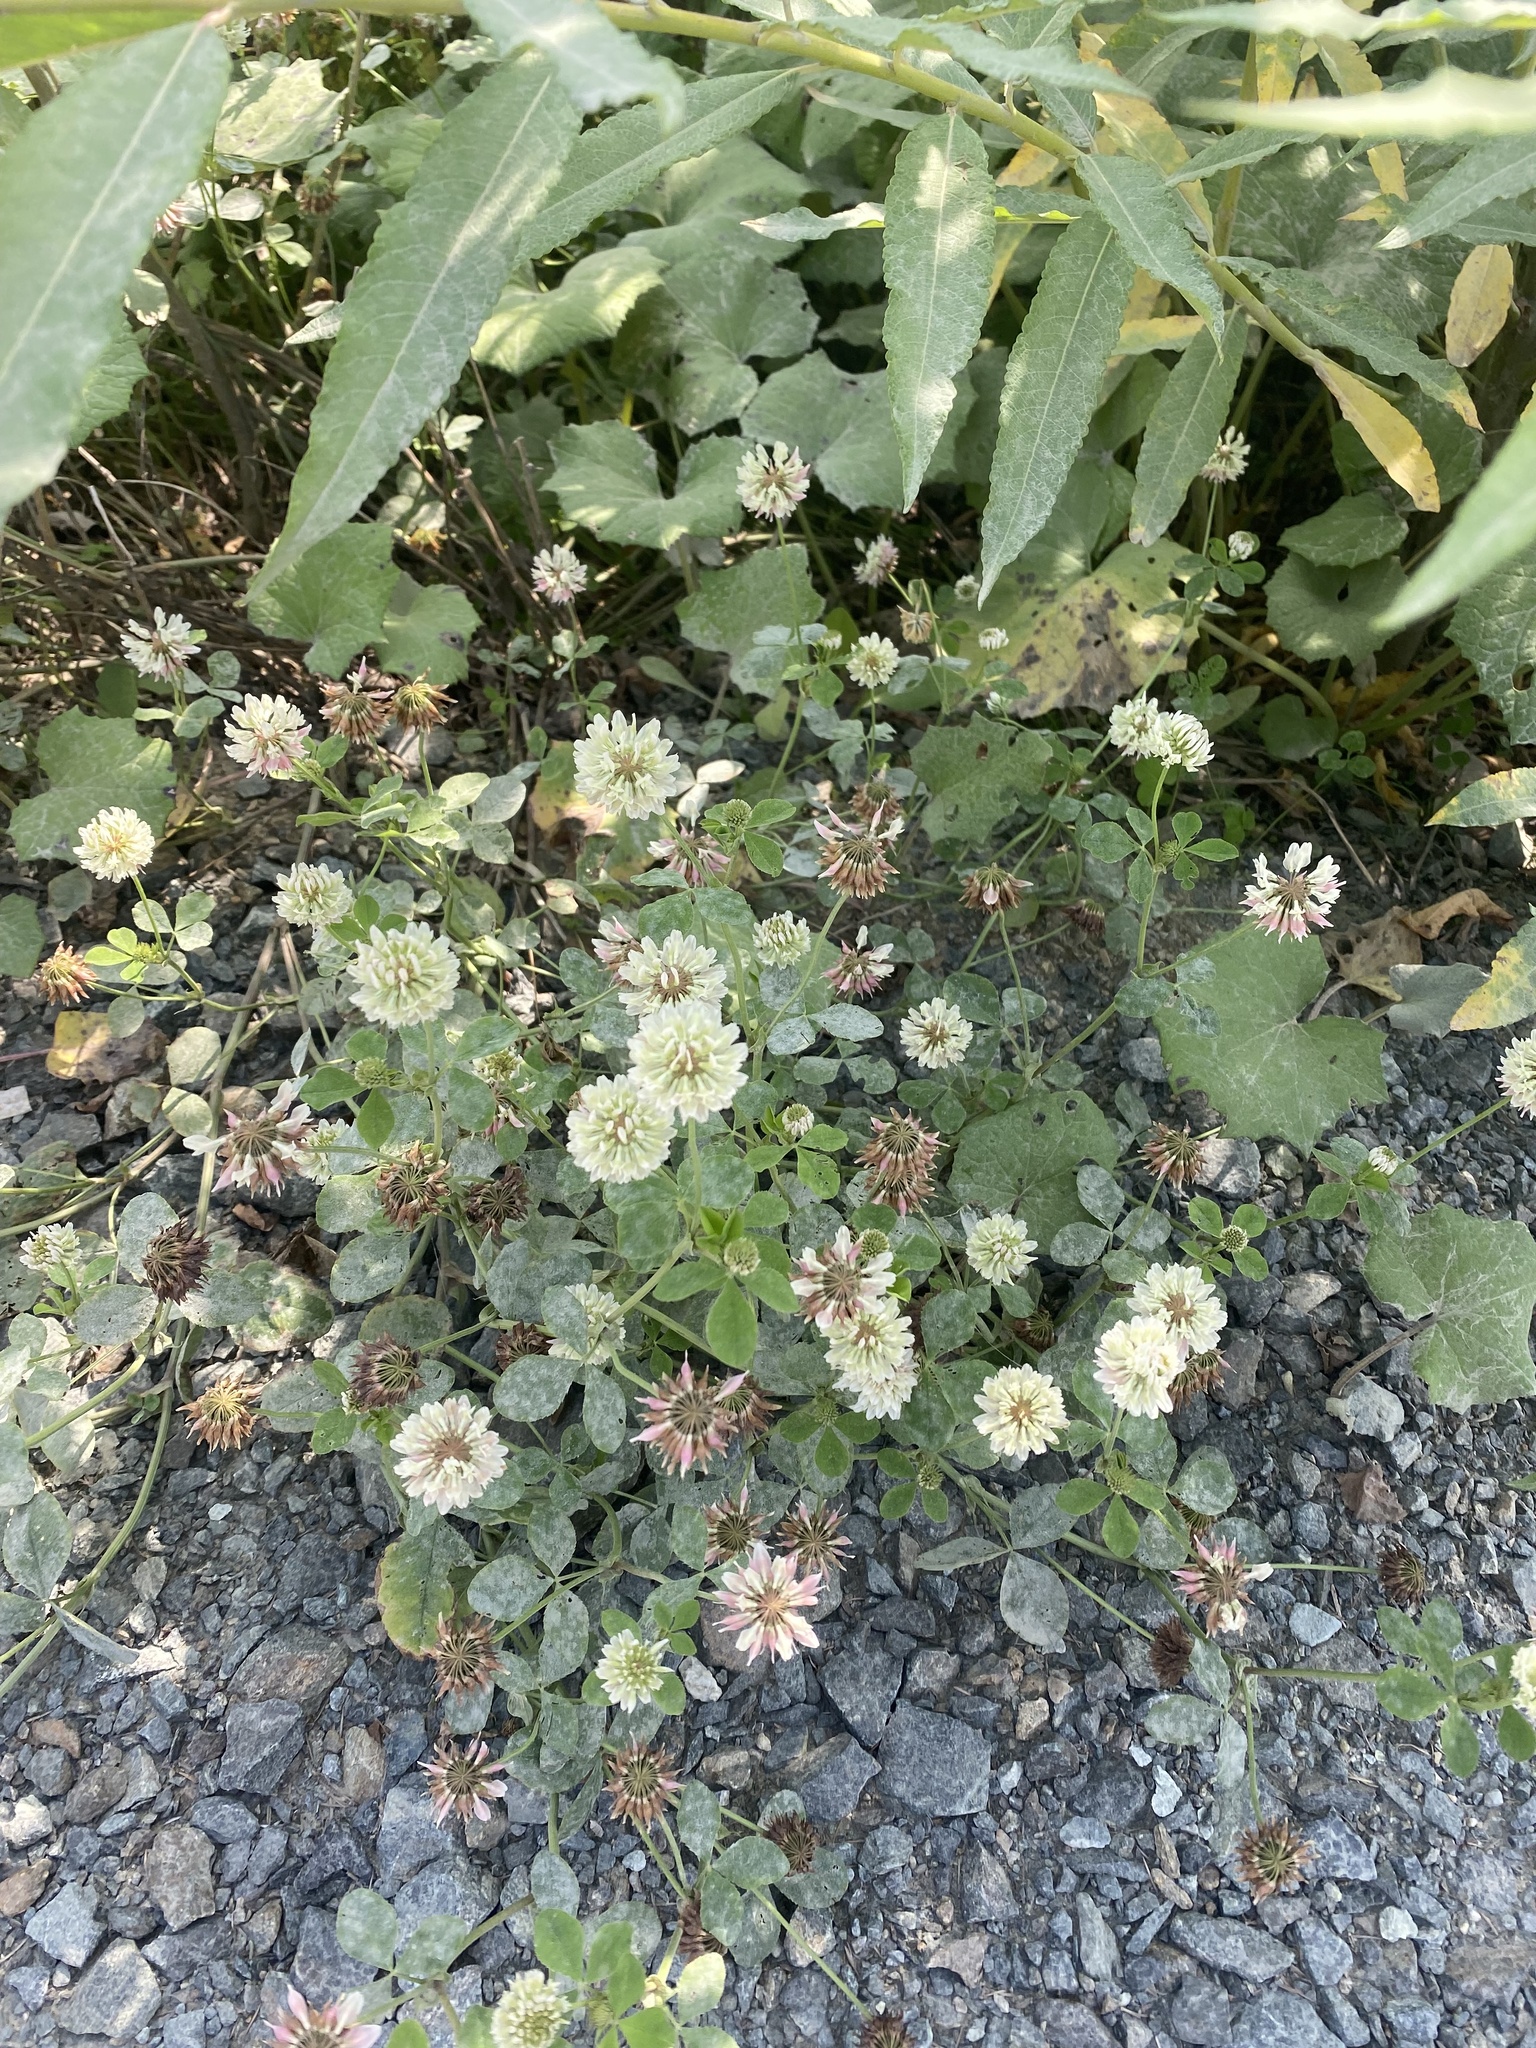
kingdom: Plantae
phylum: Tracheophyta
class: Magnoliopsida
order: Fabales
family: Fabaceae
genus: Trifolium
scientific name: Trifolium repens
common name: White clover
